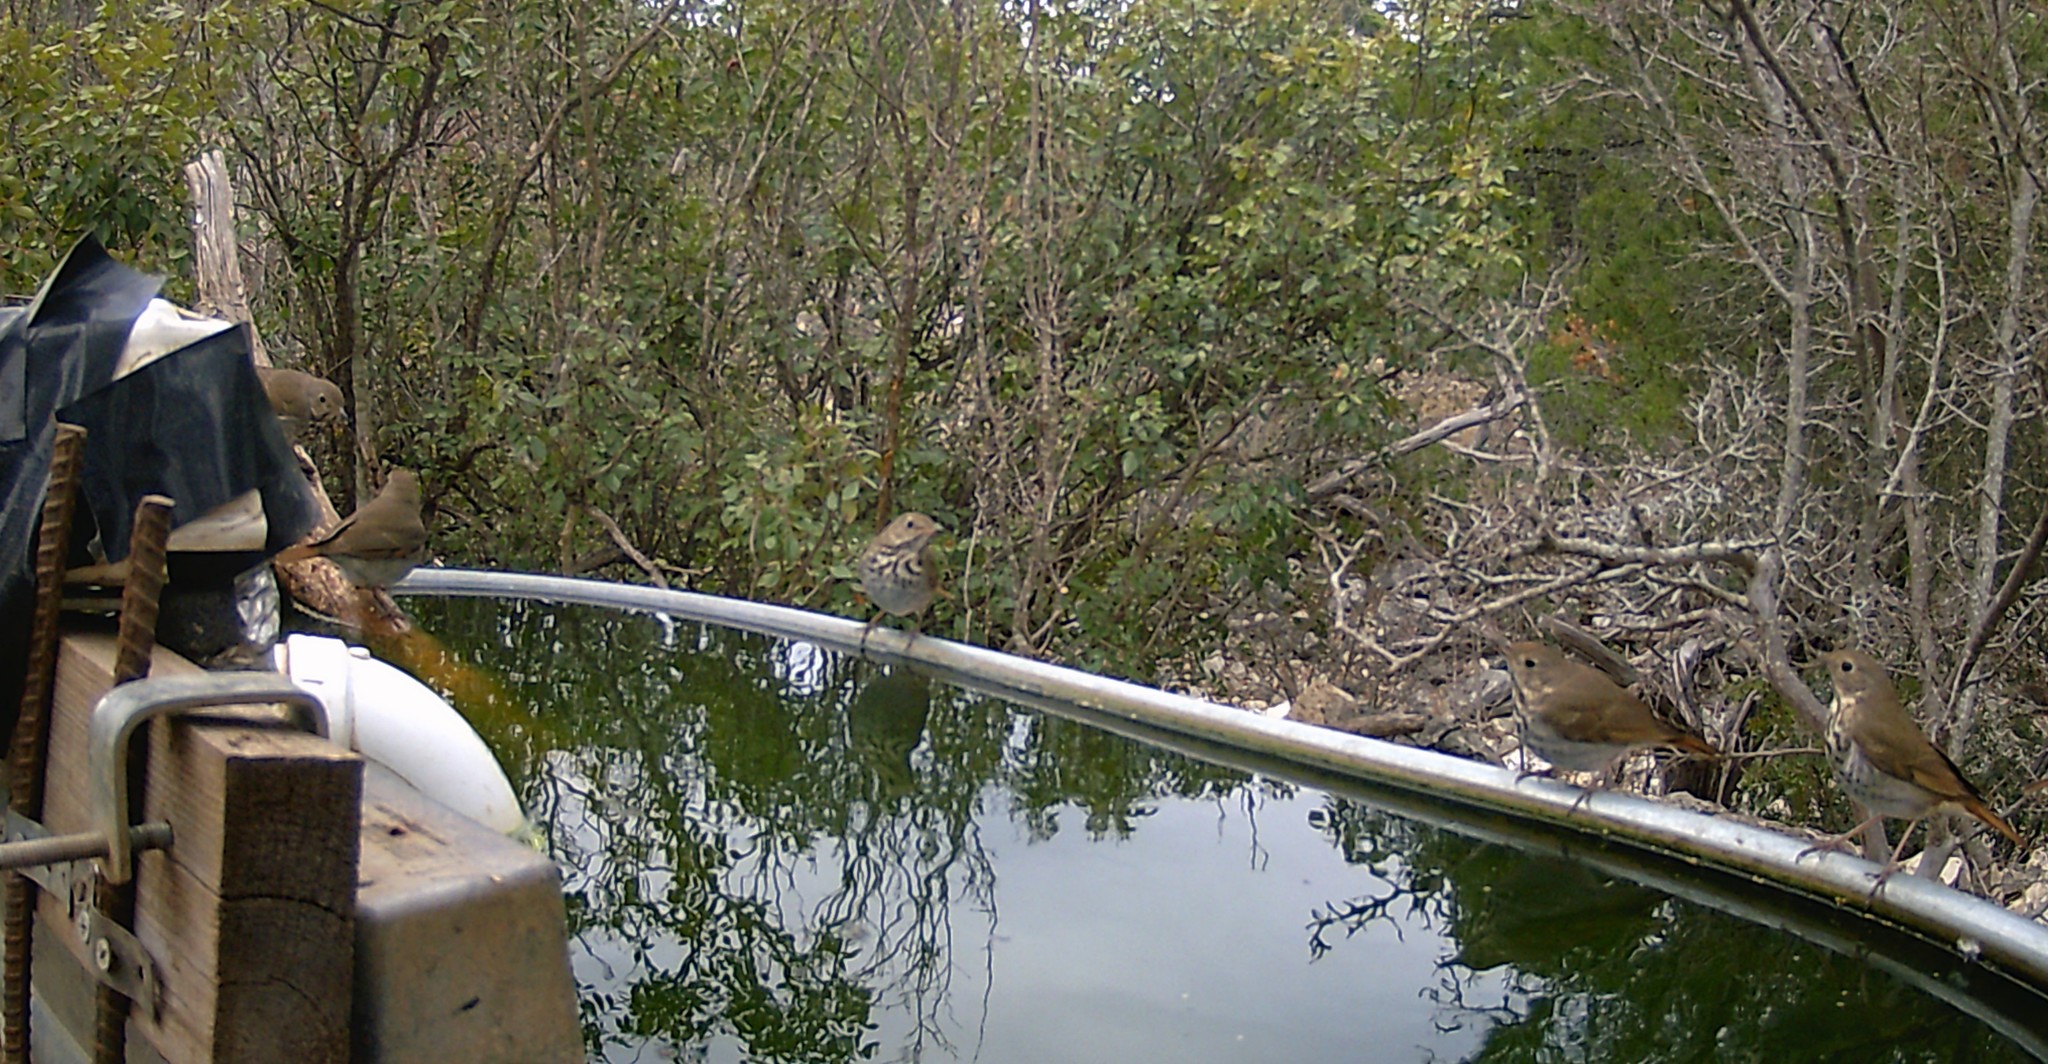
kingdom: Animalia
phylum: Chordata
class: Aves
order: Passeriformes
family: Turdidae
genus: Catharus
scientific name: Catharus guttatus
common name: Hermit thrush
